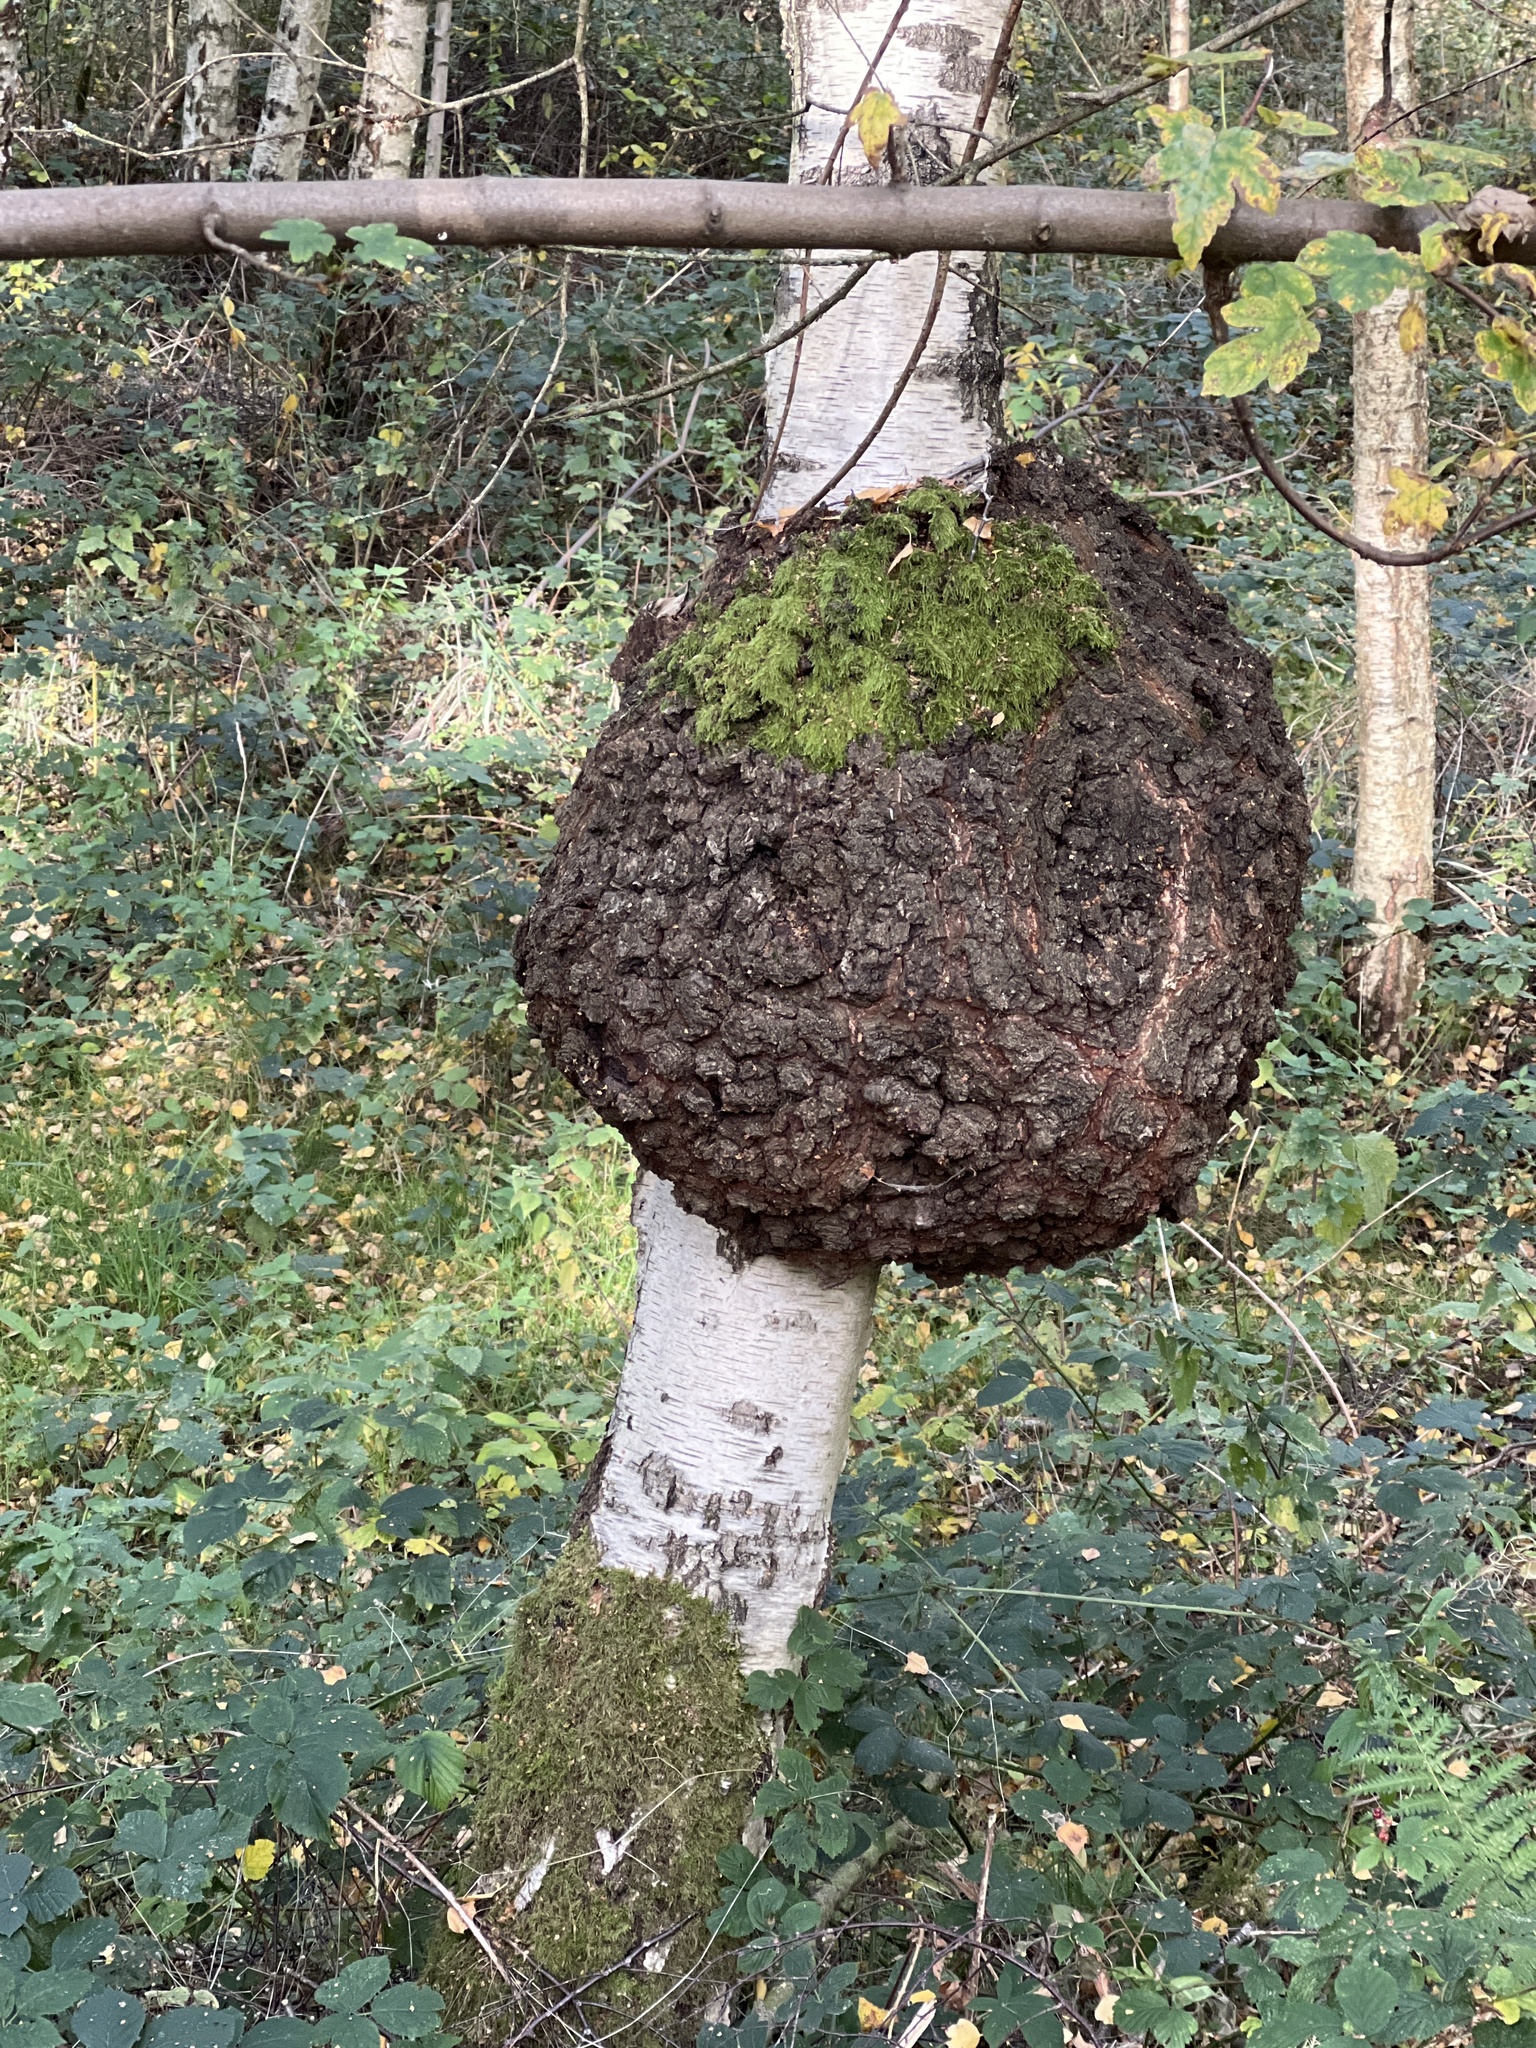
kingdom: Bacteria
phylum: Proteobacteria
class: Alphaproteobacteria
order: Rhizobiales
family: Rhizobiaceae
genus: Rhizobium
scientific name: Rhizobium Agrobacterium radiobacter
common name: Bacterial crown gall
